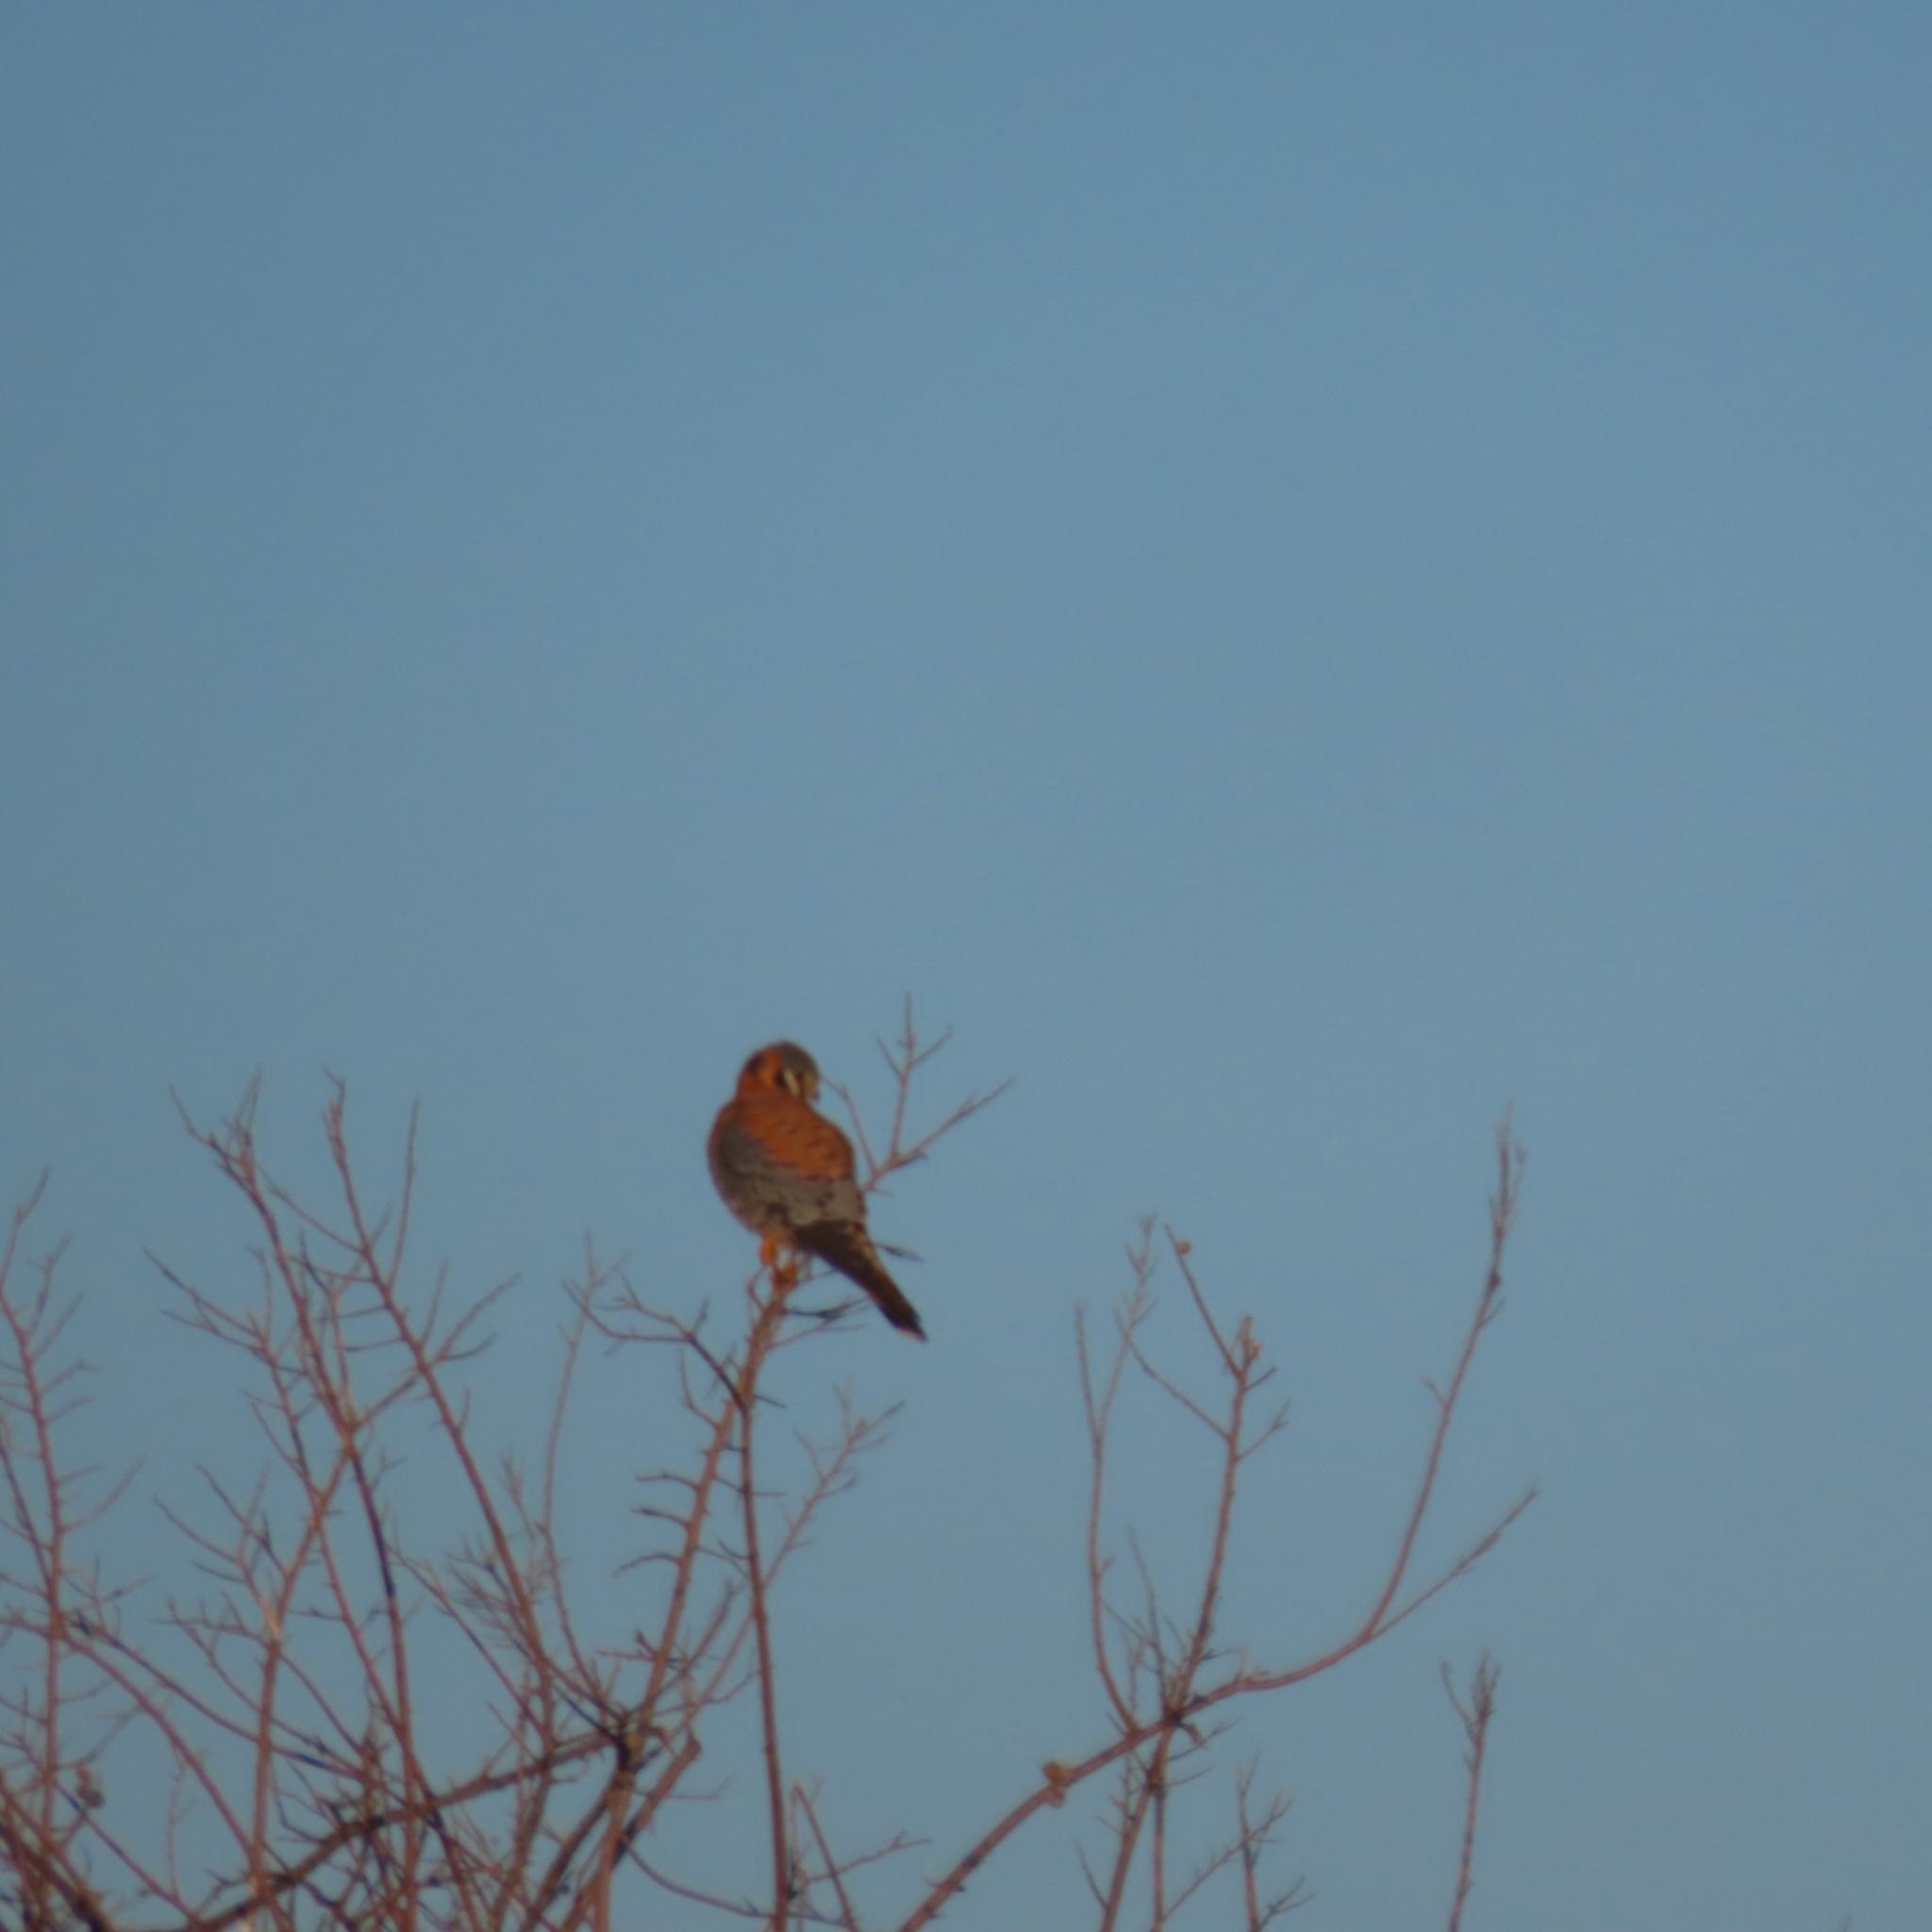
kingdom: Animalia
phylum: Chordata
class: Aves
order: Falconiformes
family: Falconidae
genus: Falco
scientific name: Falco sparverius
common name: American kestrel
